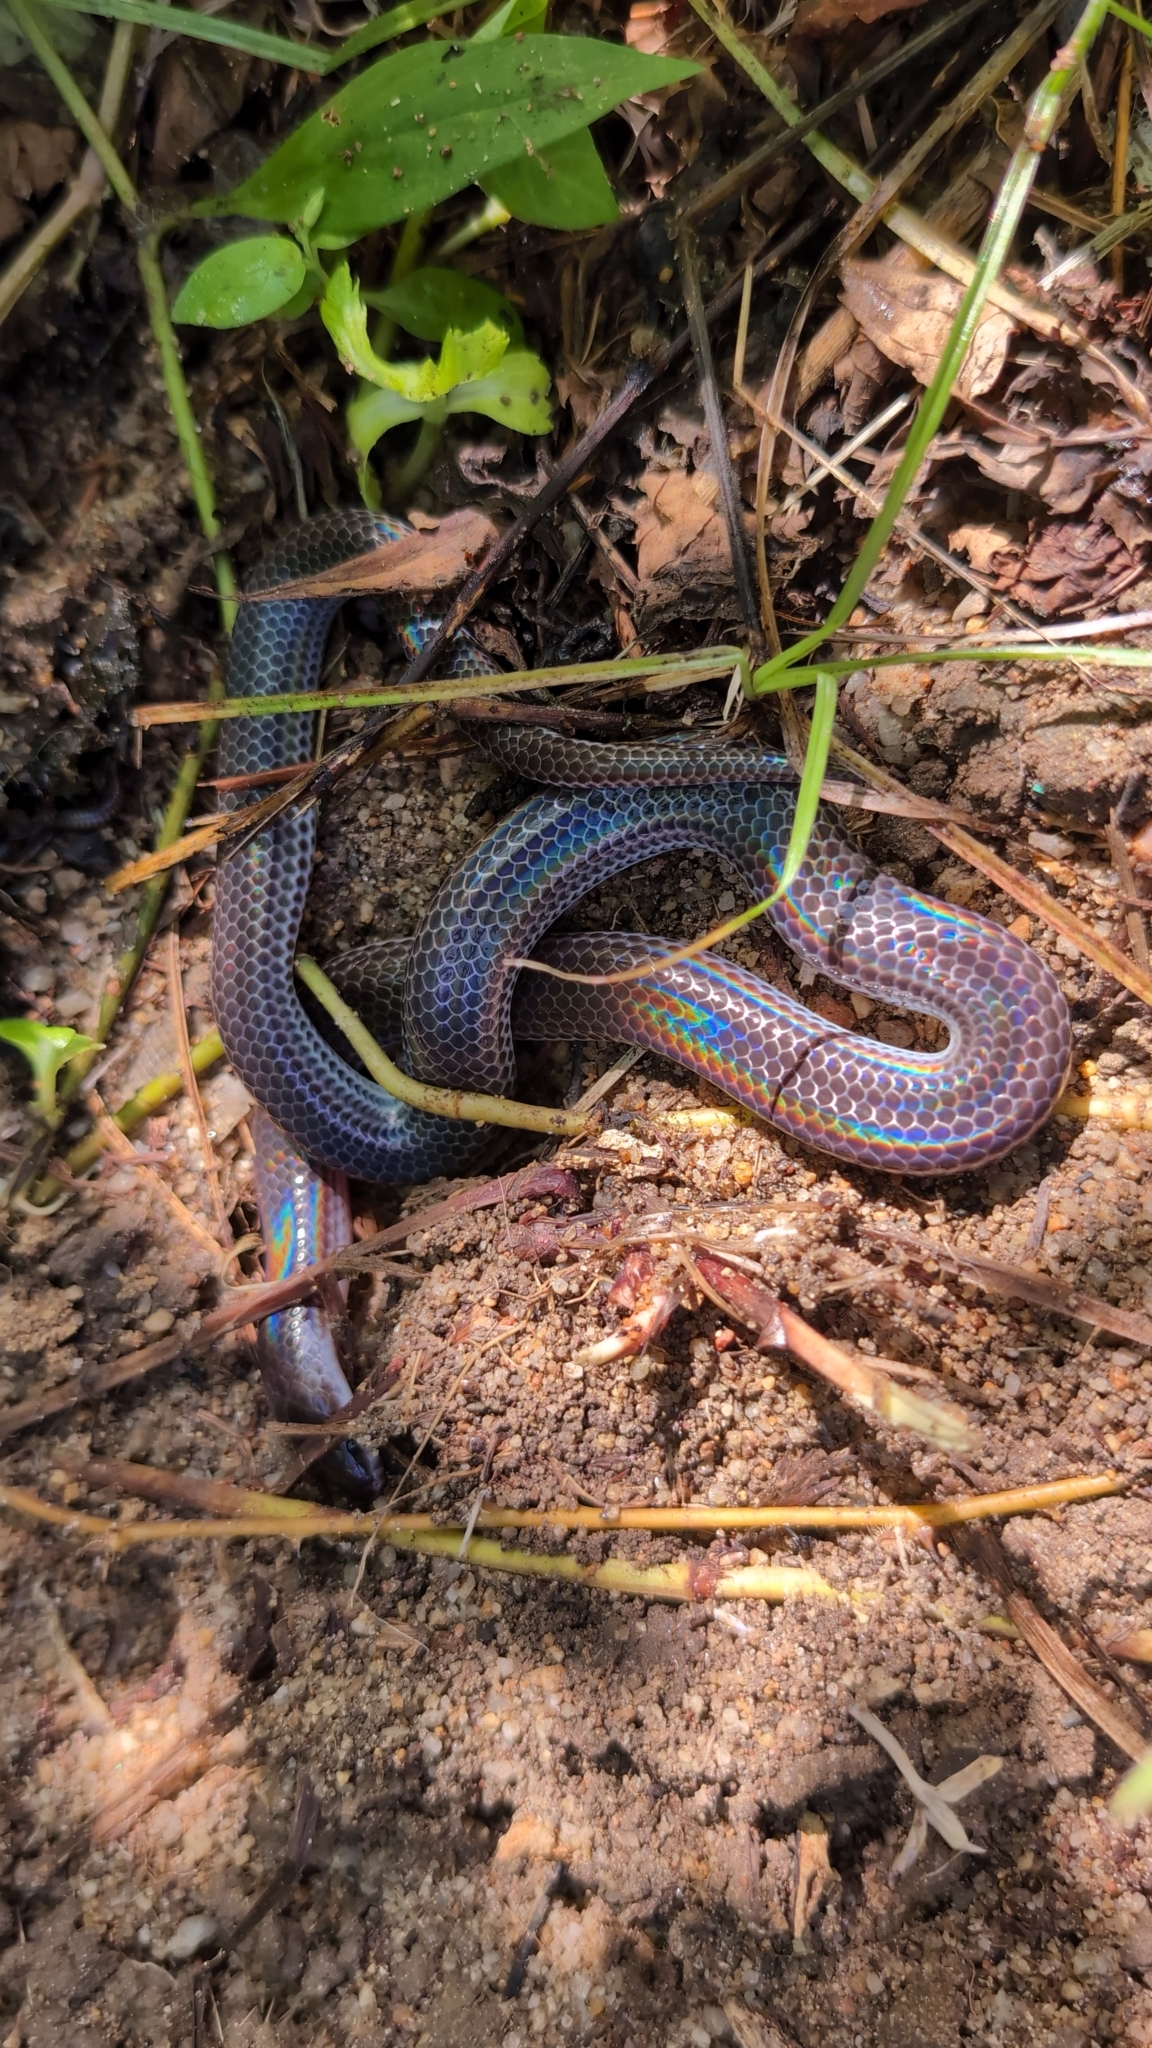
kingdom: Animalia
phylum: Chordata
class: Squamata
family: Xenopeltidae
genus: Xenopeltis
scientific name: Xenopeltis unicolor
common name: Sunbeam snake
